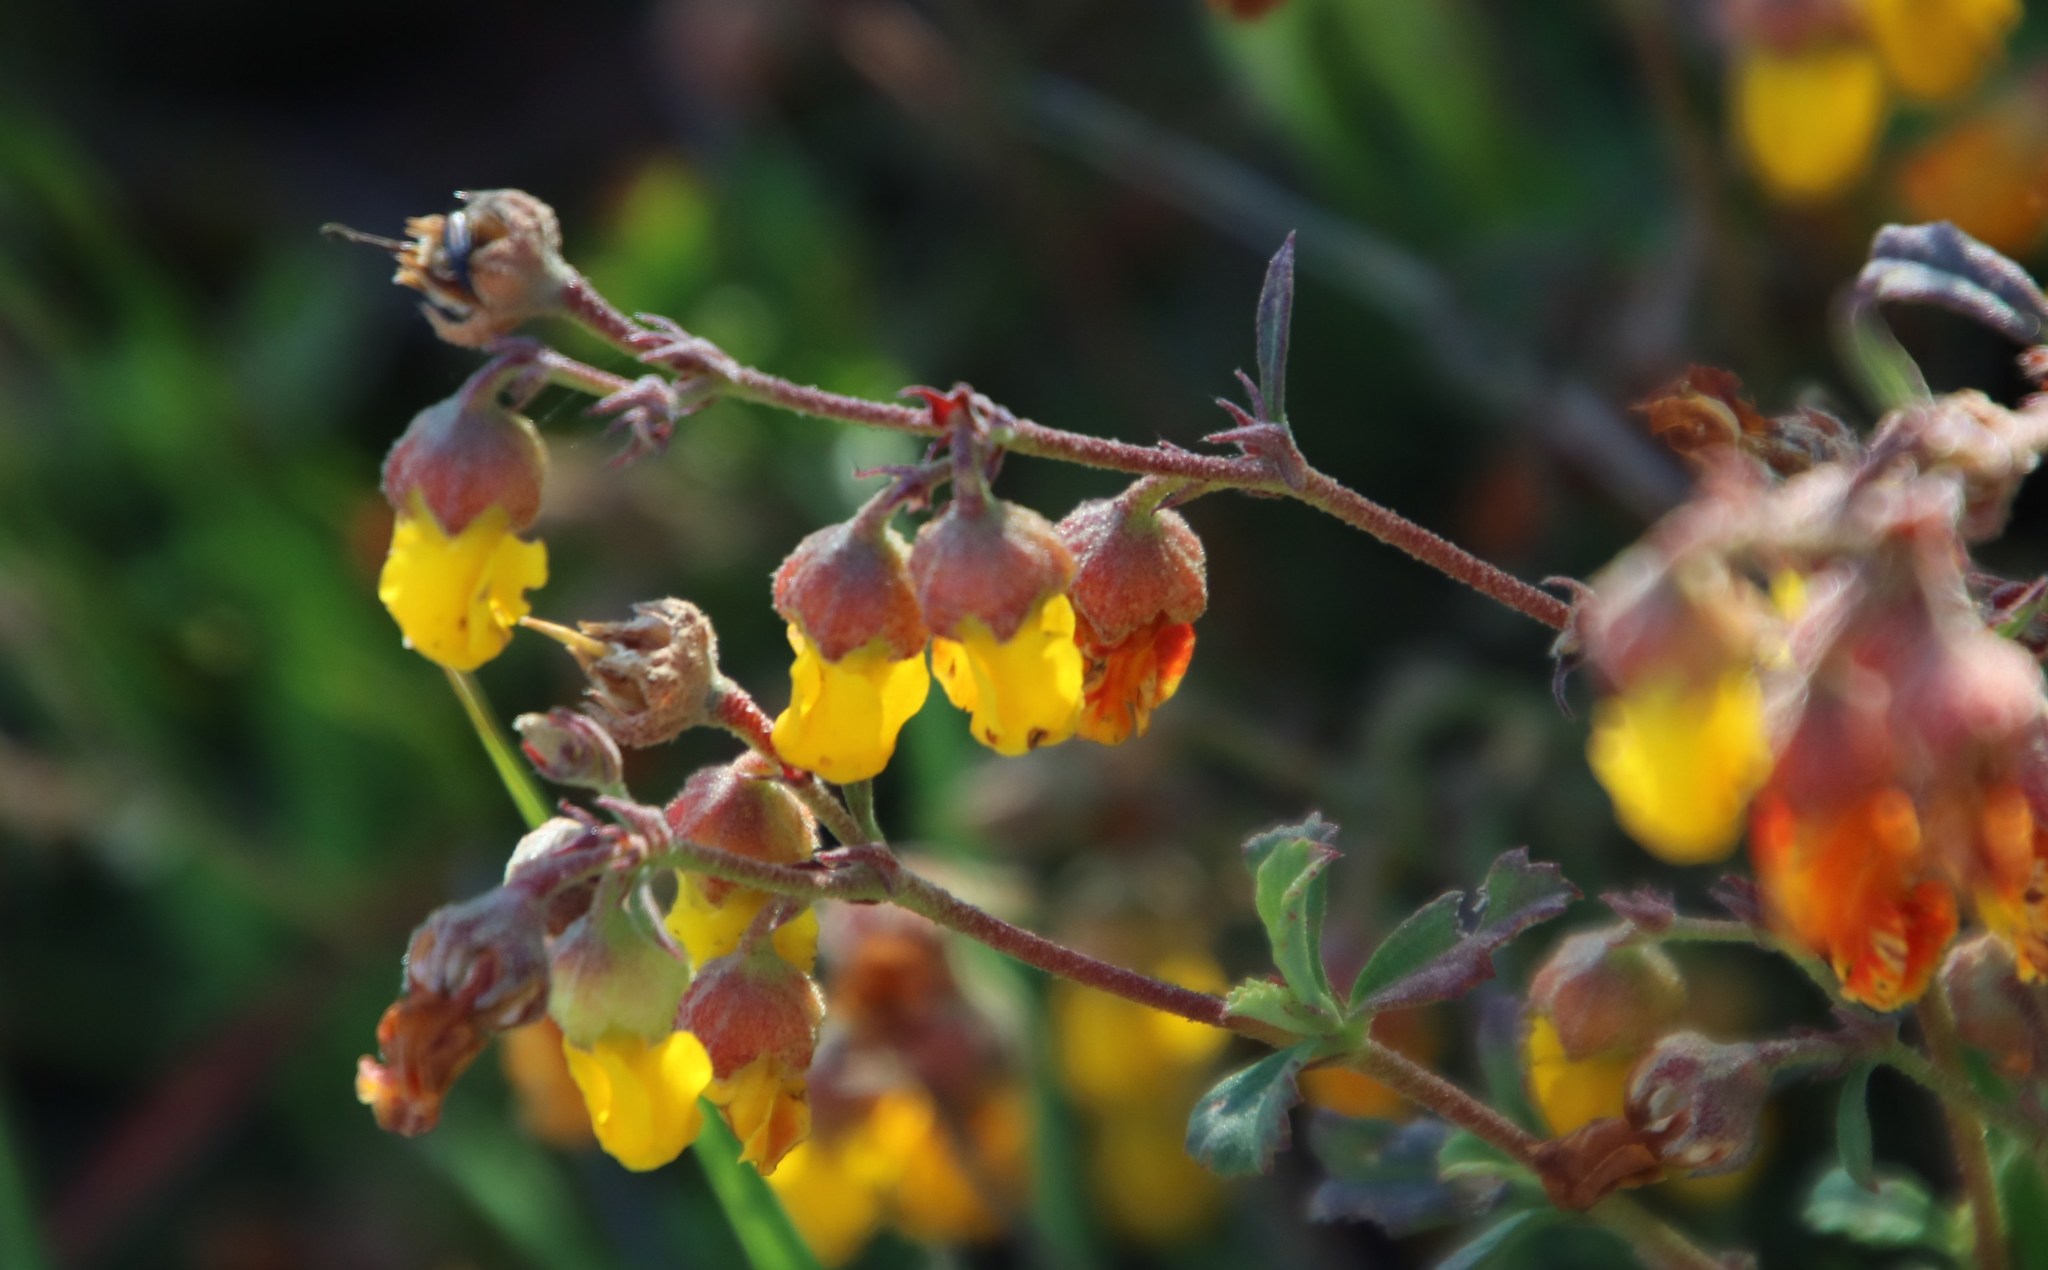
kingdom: Plantae
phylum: Tracheophyta
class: Magnoliopsida
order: Malvales
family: Malvaceae
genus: Hermannia
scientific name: Hermannia multiflora
